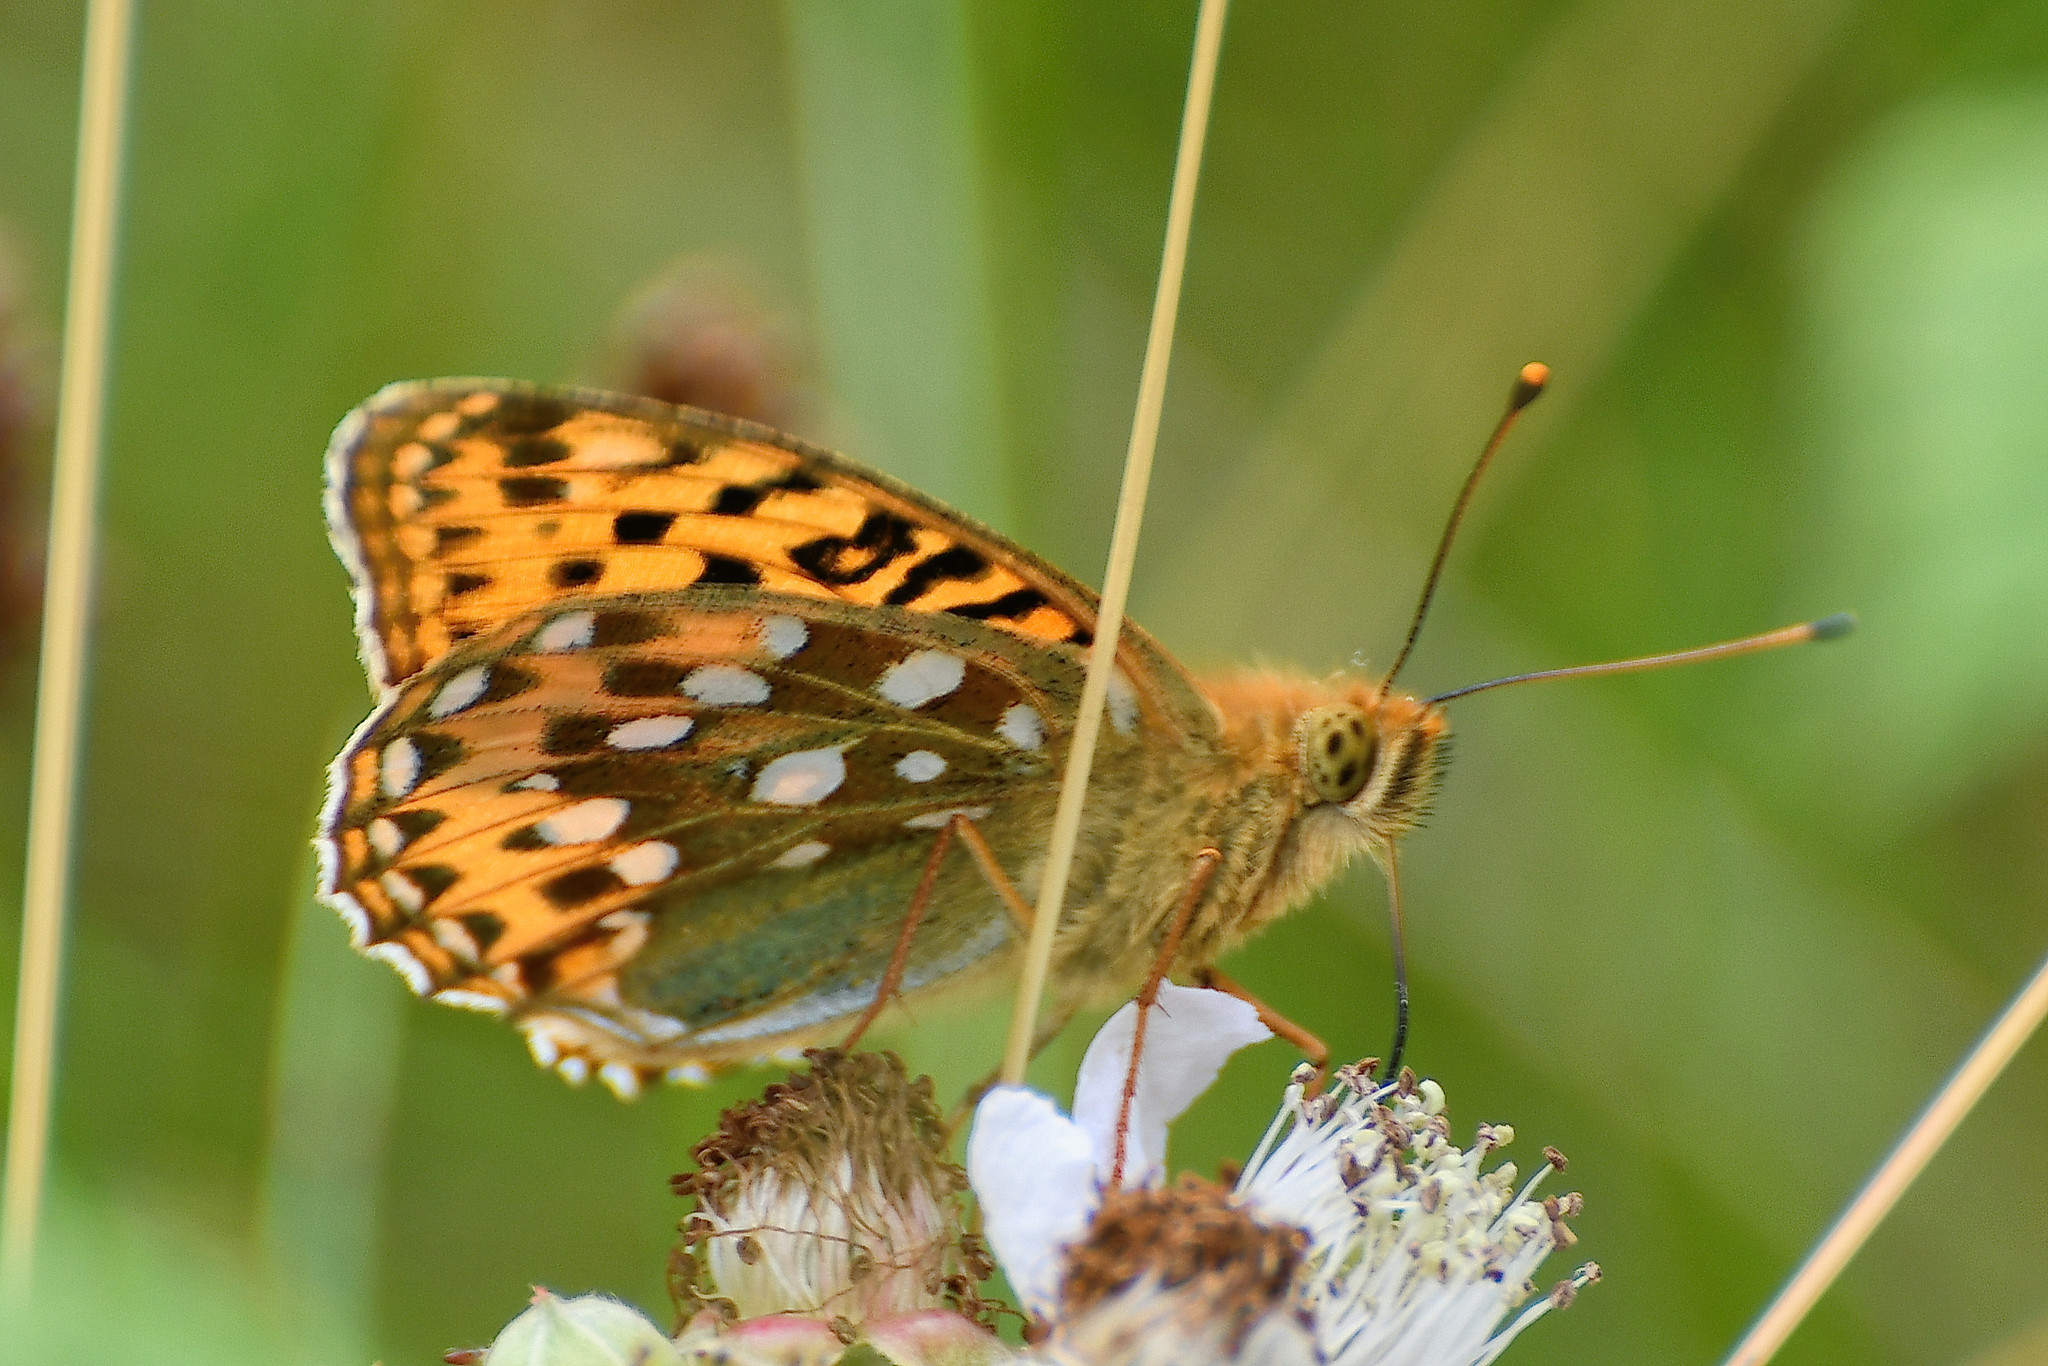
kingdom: Animalia
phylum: Arthropoda
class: Insecta
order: Lepidoptera
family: Nymphalidae
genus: Speyeria
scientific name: Speyeria aglaja
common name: Dark green fritillary
